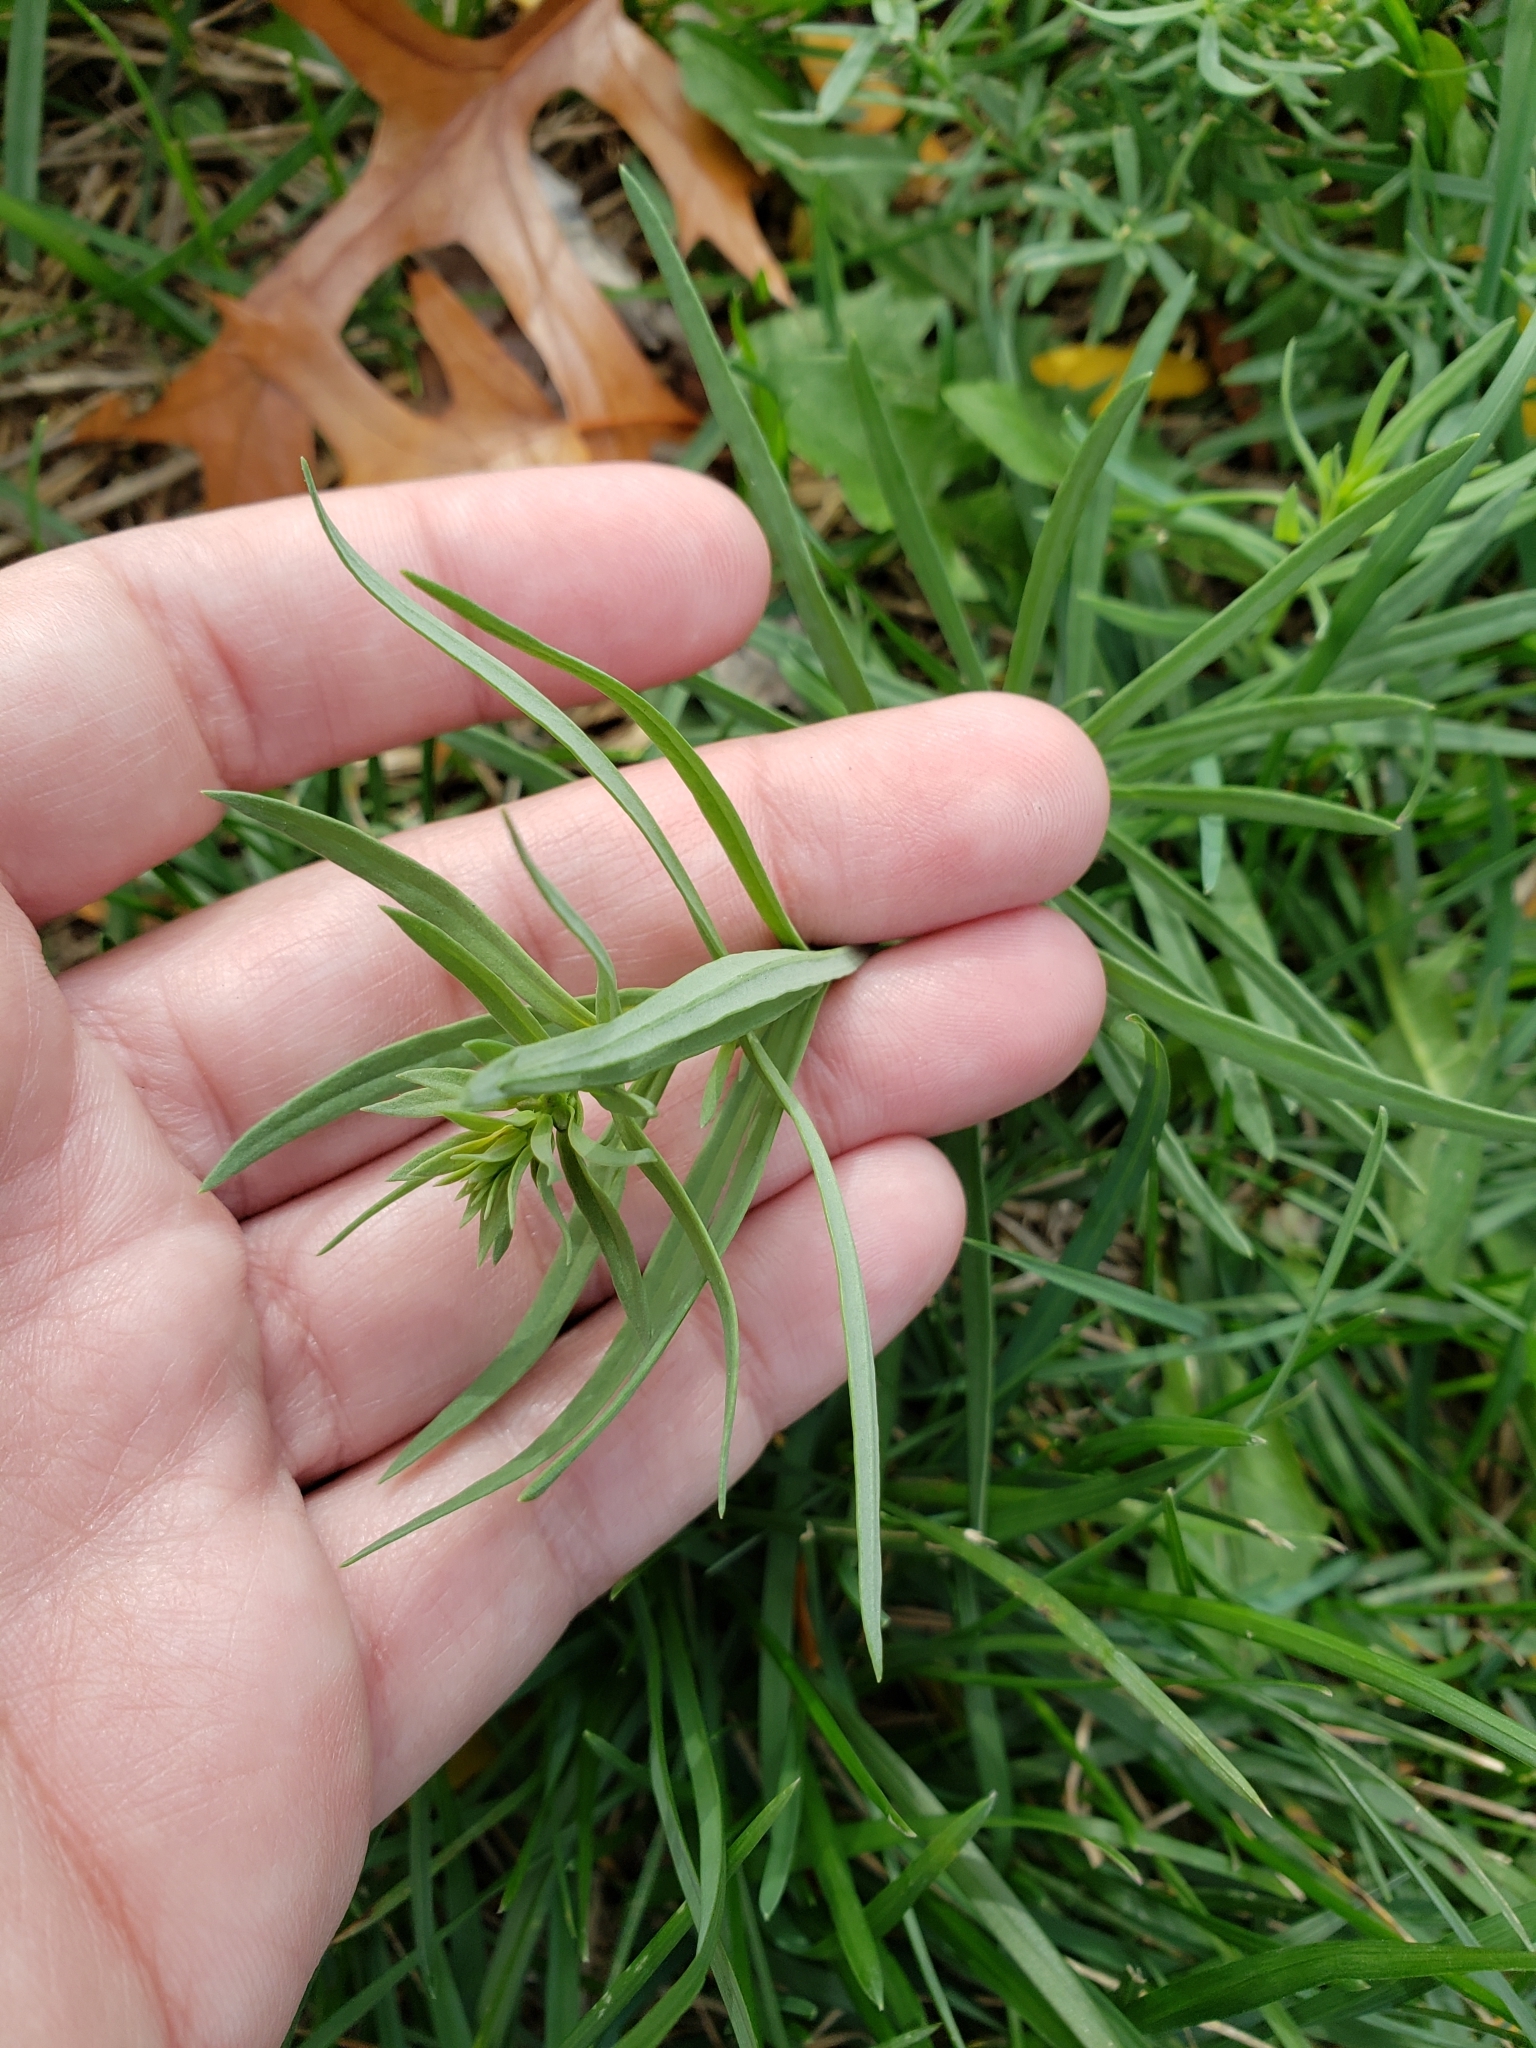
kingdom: Plantae
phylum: Tracheophyta
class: Magnoliopsida
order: Lamiales
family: Plantaginaceae
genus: Linaria
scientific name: Linaria vulgaris
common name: Butter and eggs
